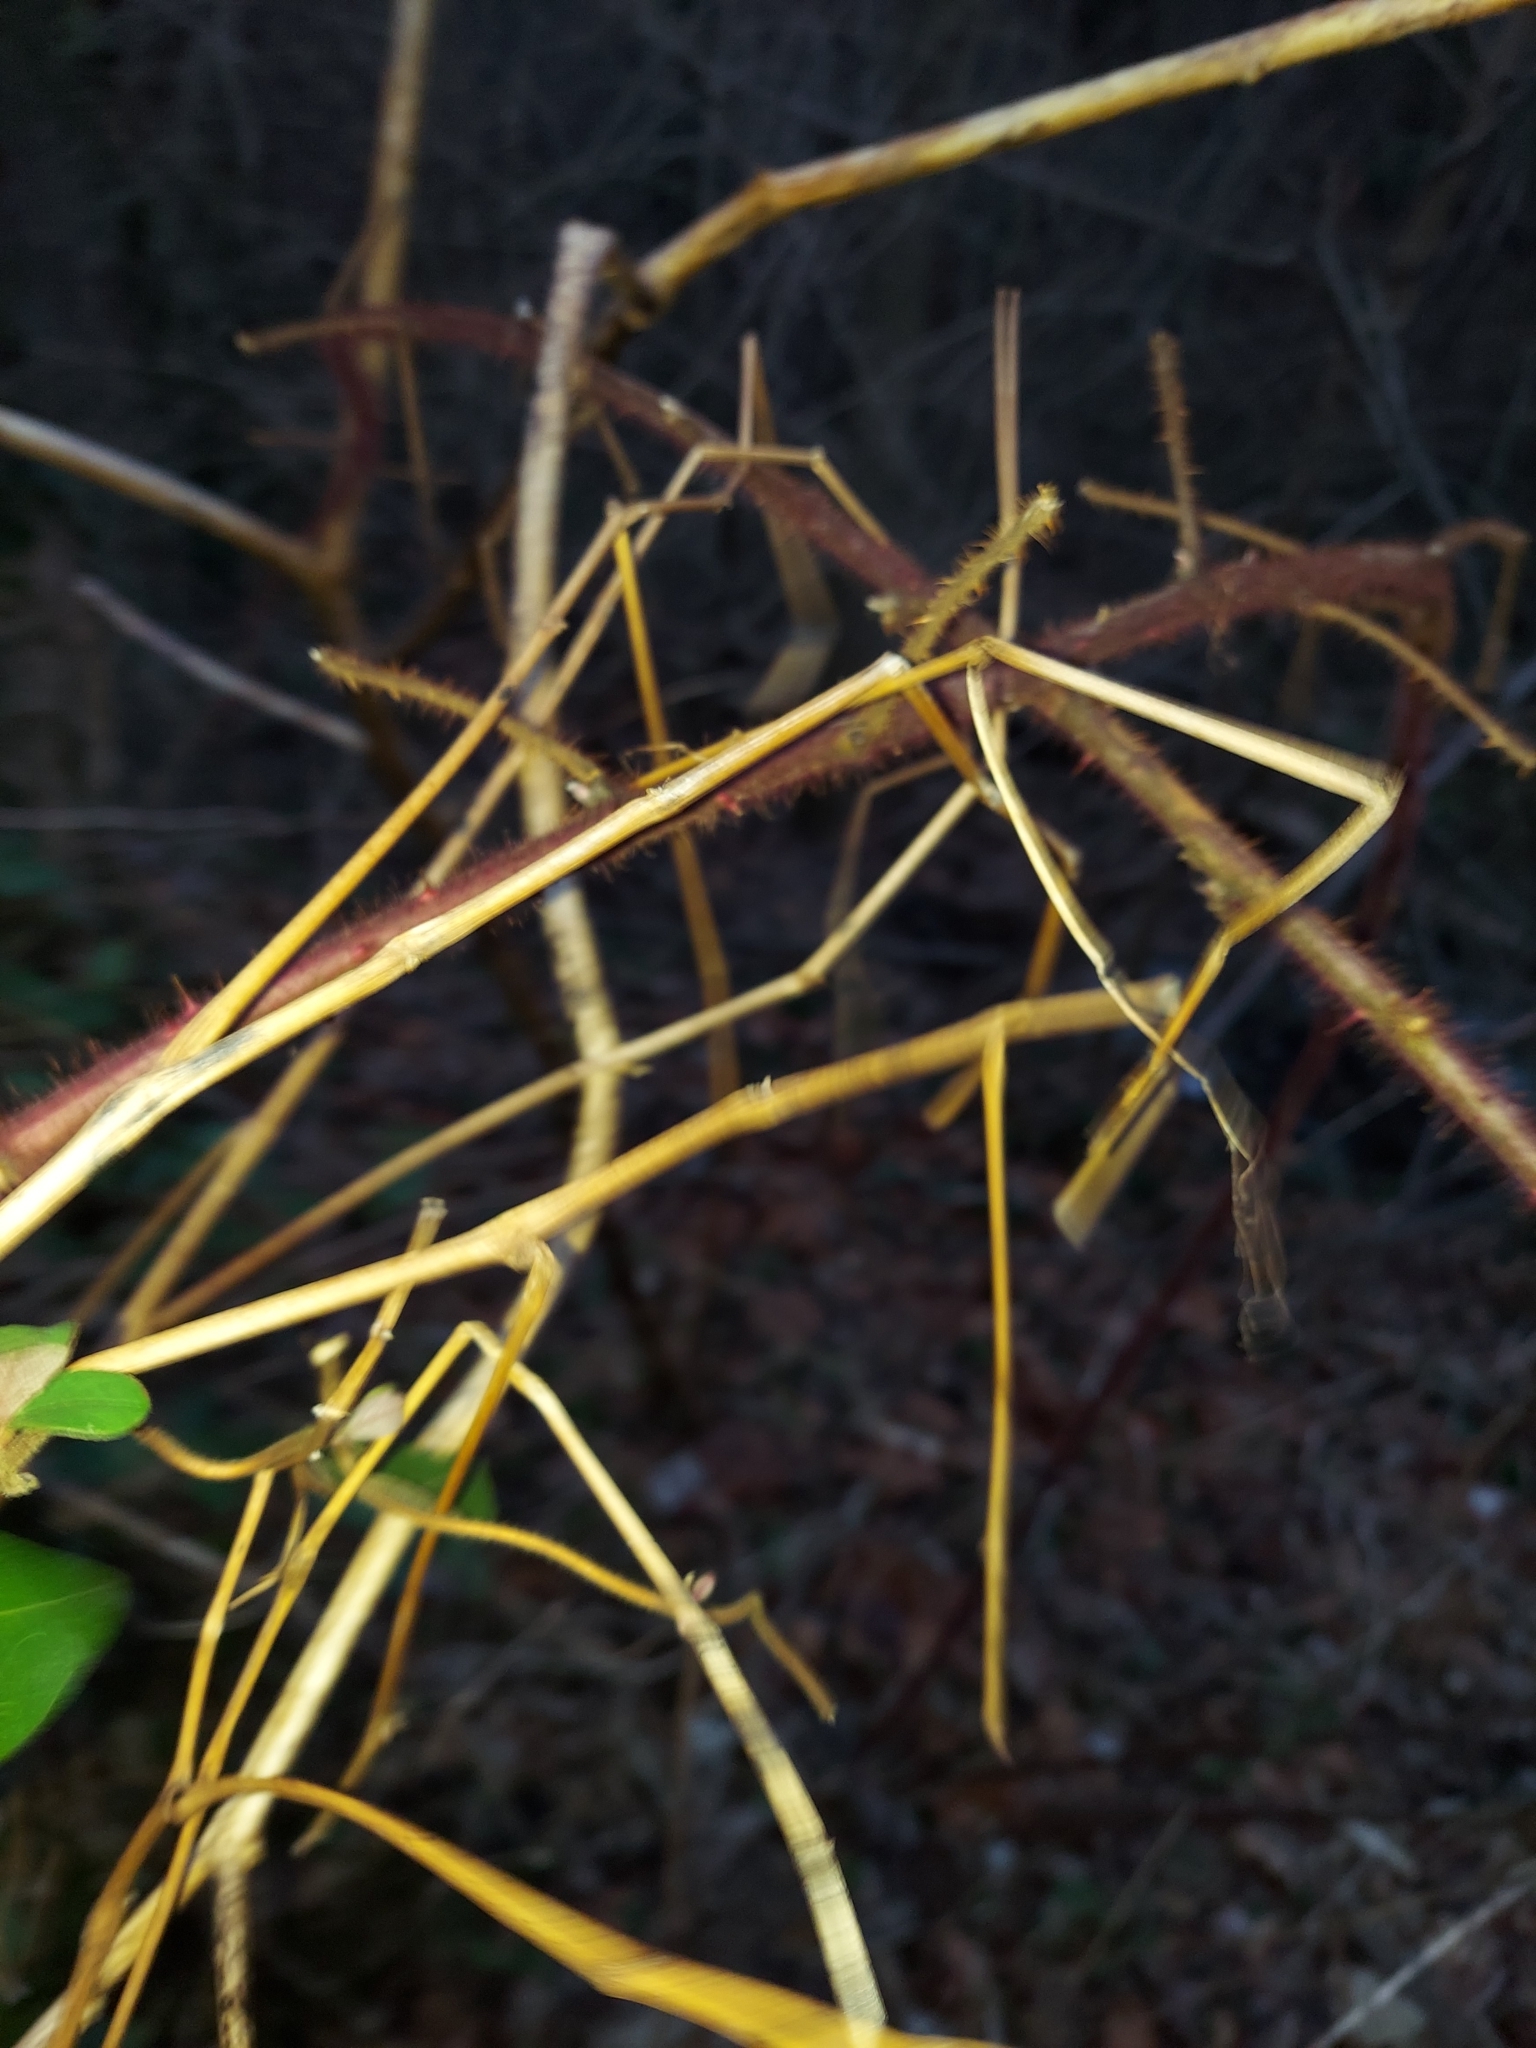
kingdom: Plantae
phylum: Tracheophyta
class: Magnoliopsida
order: Rosales
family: Rosaceae
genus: Rubus
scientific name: Rubus phoenicolasius
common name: Japanese wineberry
